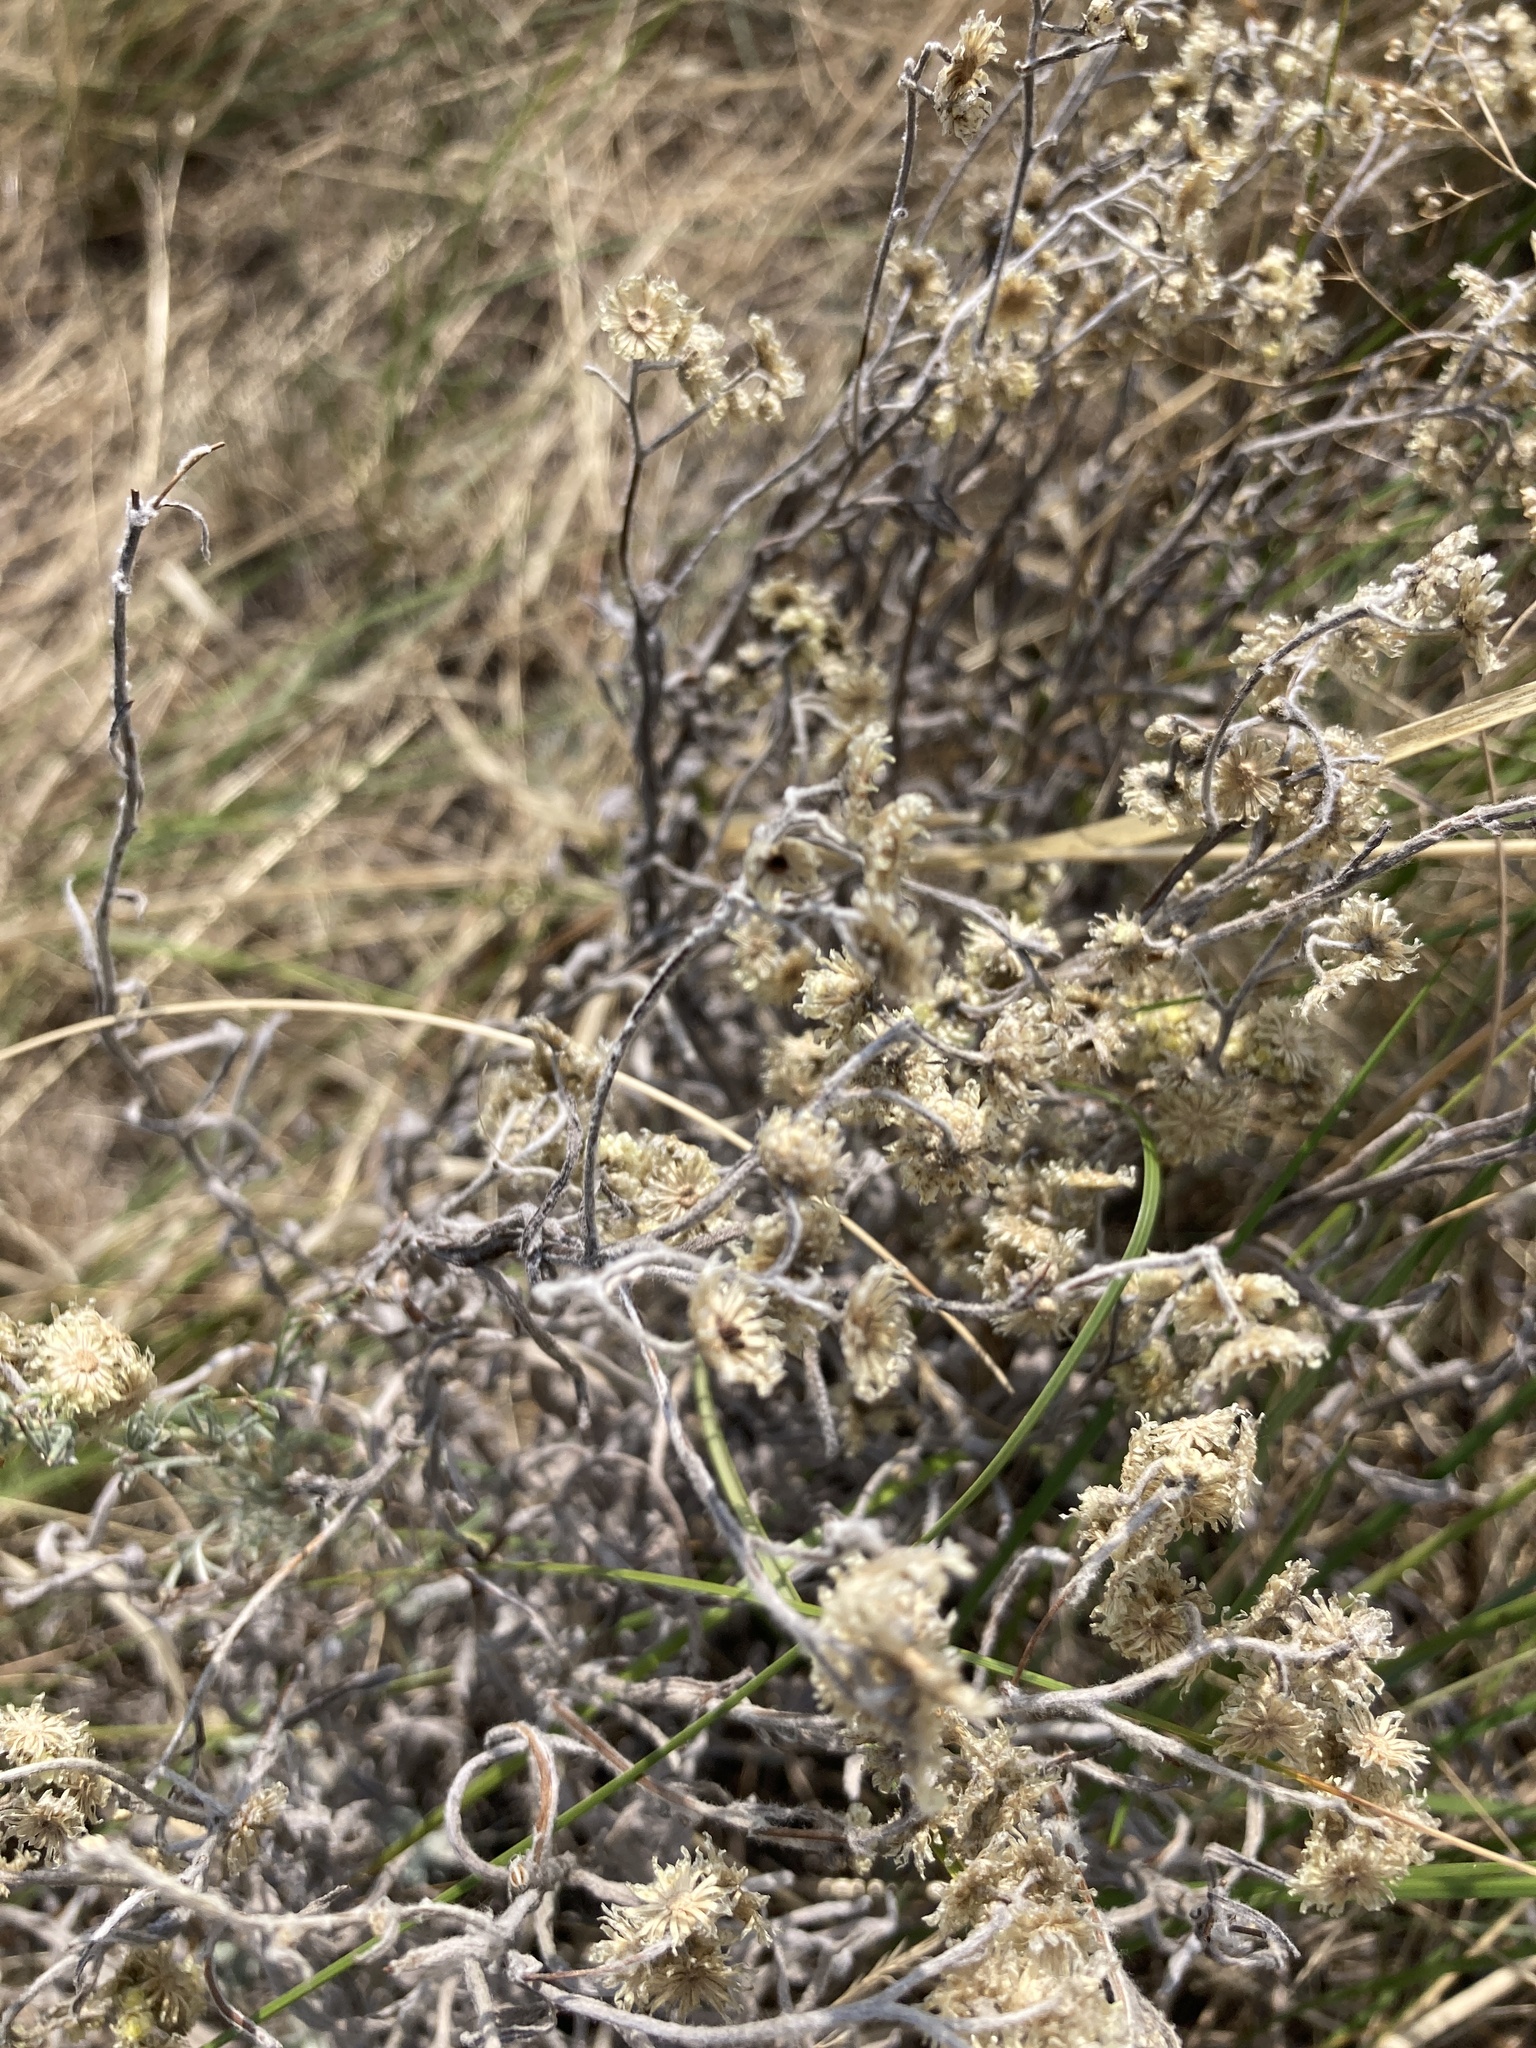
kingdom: Plantae
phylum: Tracheophyta
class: Magnoliopsida
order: Asterales
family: Asteraceae
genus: Helichrysum
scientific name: Helichrysum arenarium
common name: Strawflower
